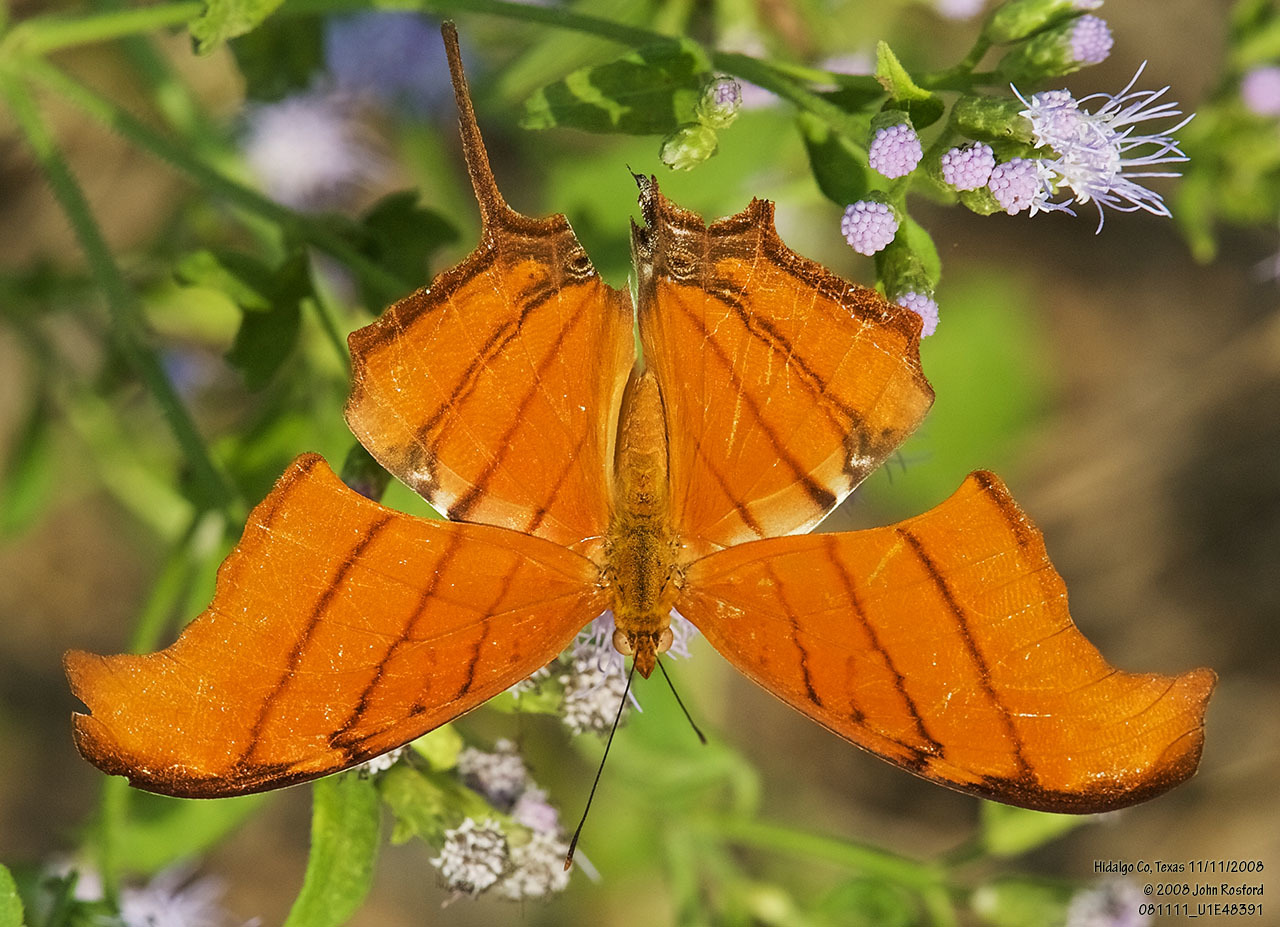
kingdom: Animalia
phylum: Arthropoda
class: Insecta
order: Lepidoptera
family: Nymphalidae
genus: Marpesia
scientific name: Marpesia petreus
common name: Red dagger wing
